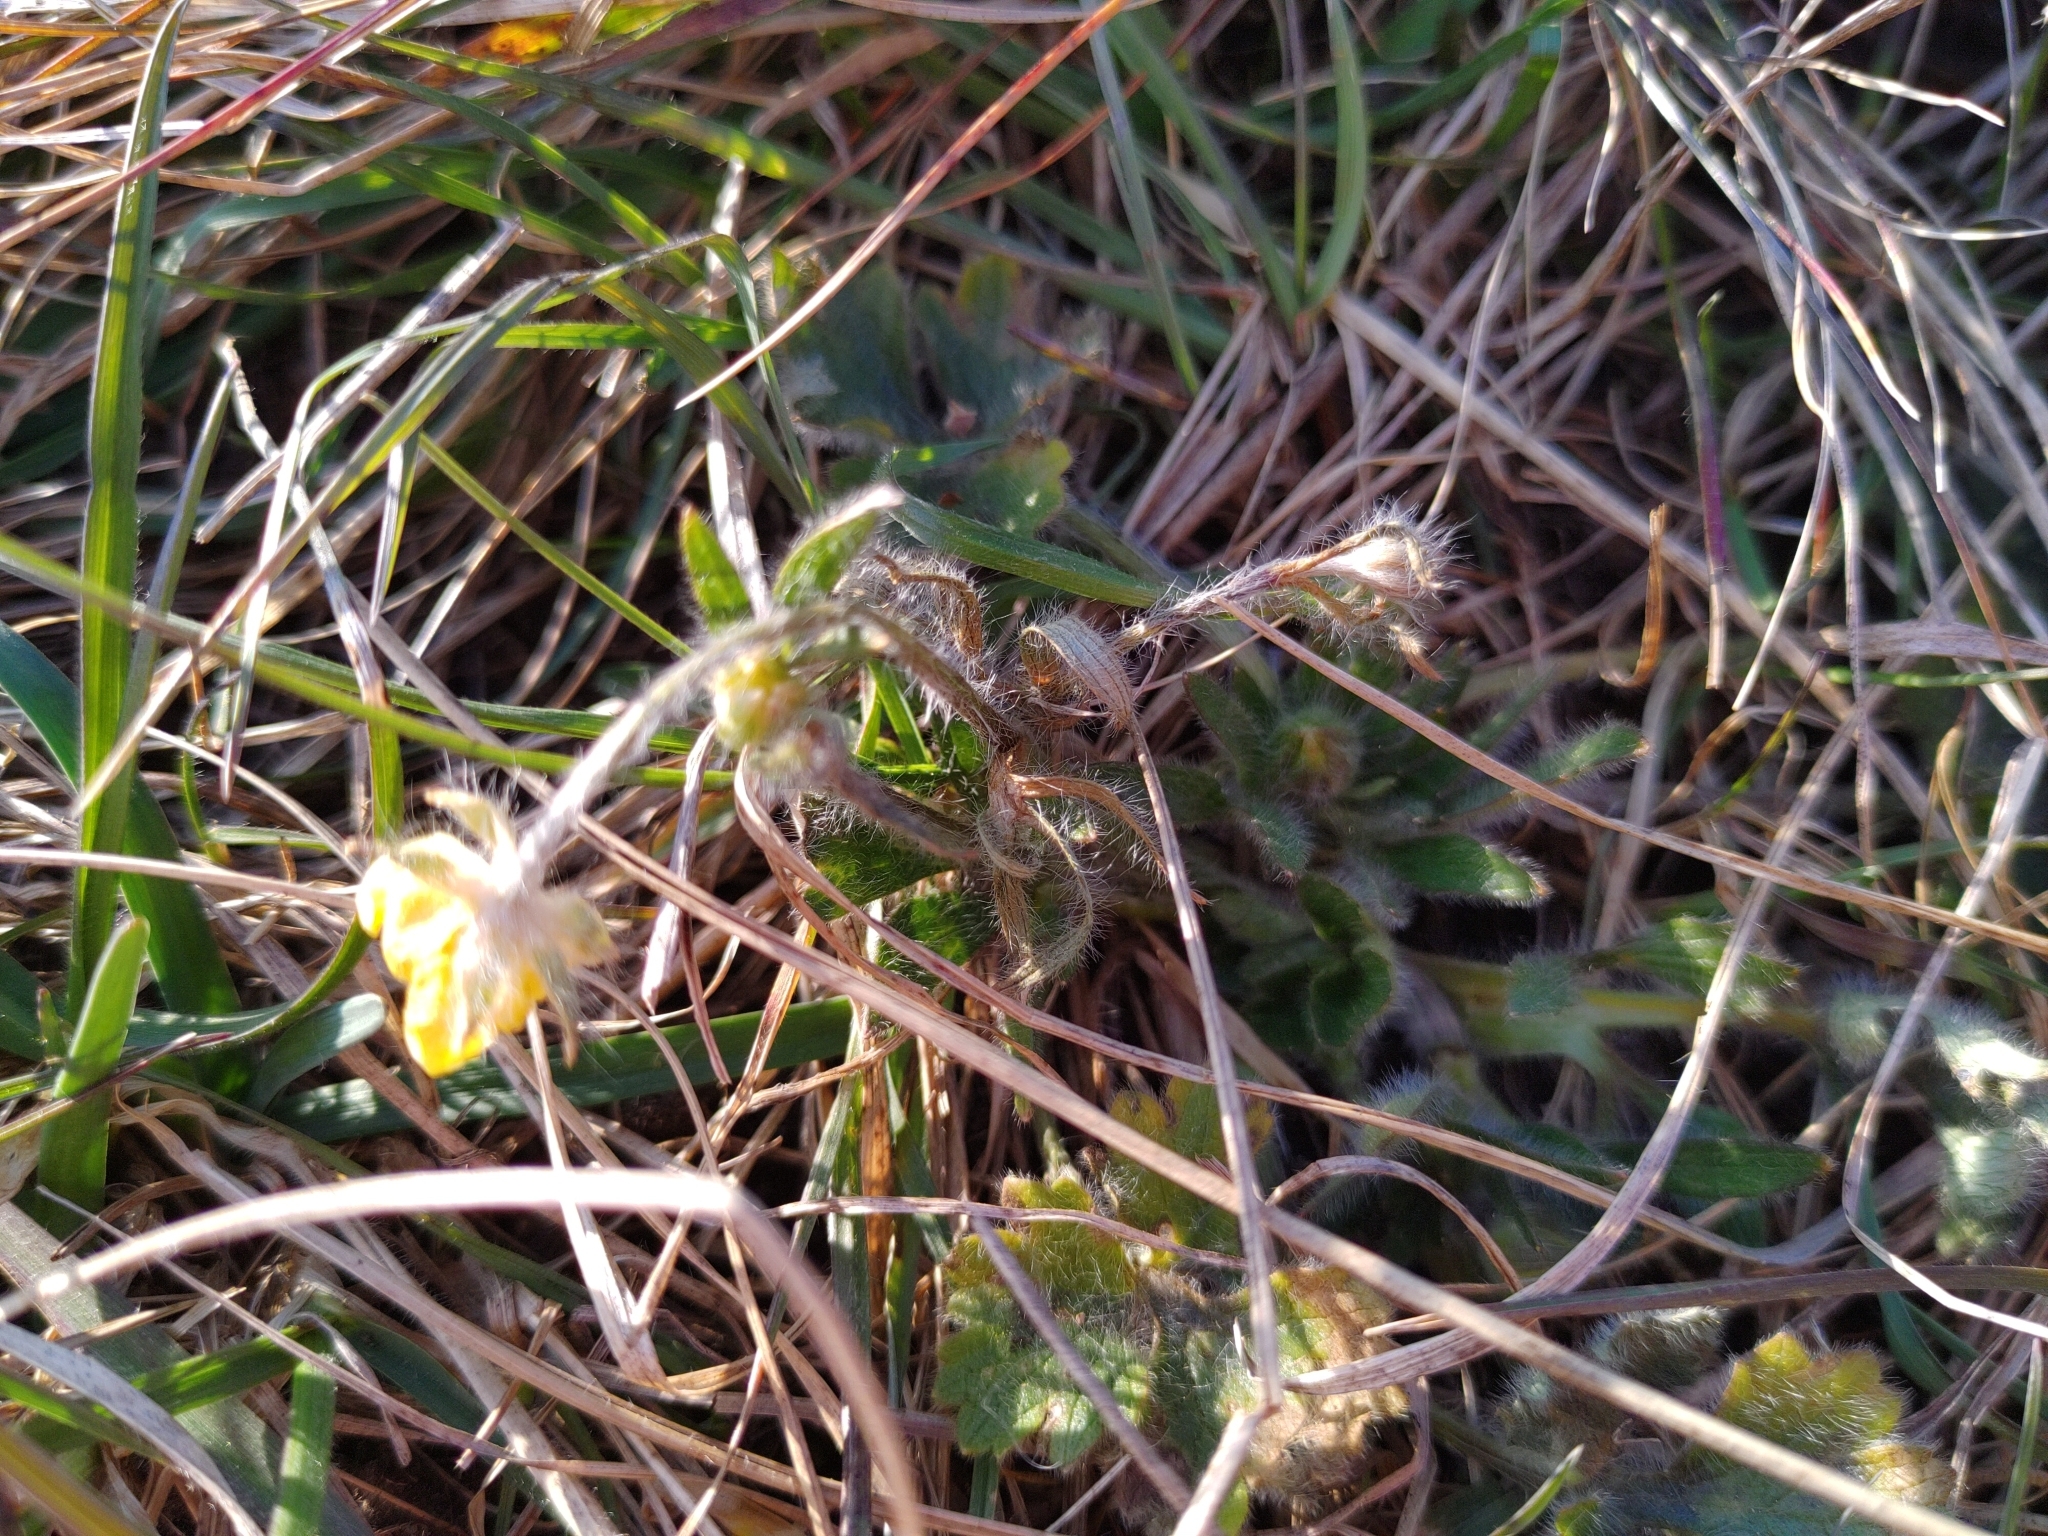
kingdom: Plantae
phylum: Tracheophyta
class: Magnoliopsida
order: Ranunculales
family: Ranunculaceae
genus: Ranunculus
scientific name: Ranunculus bulbosus
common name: Bulbous buttercup
